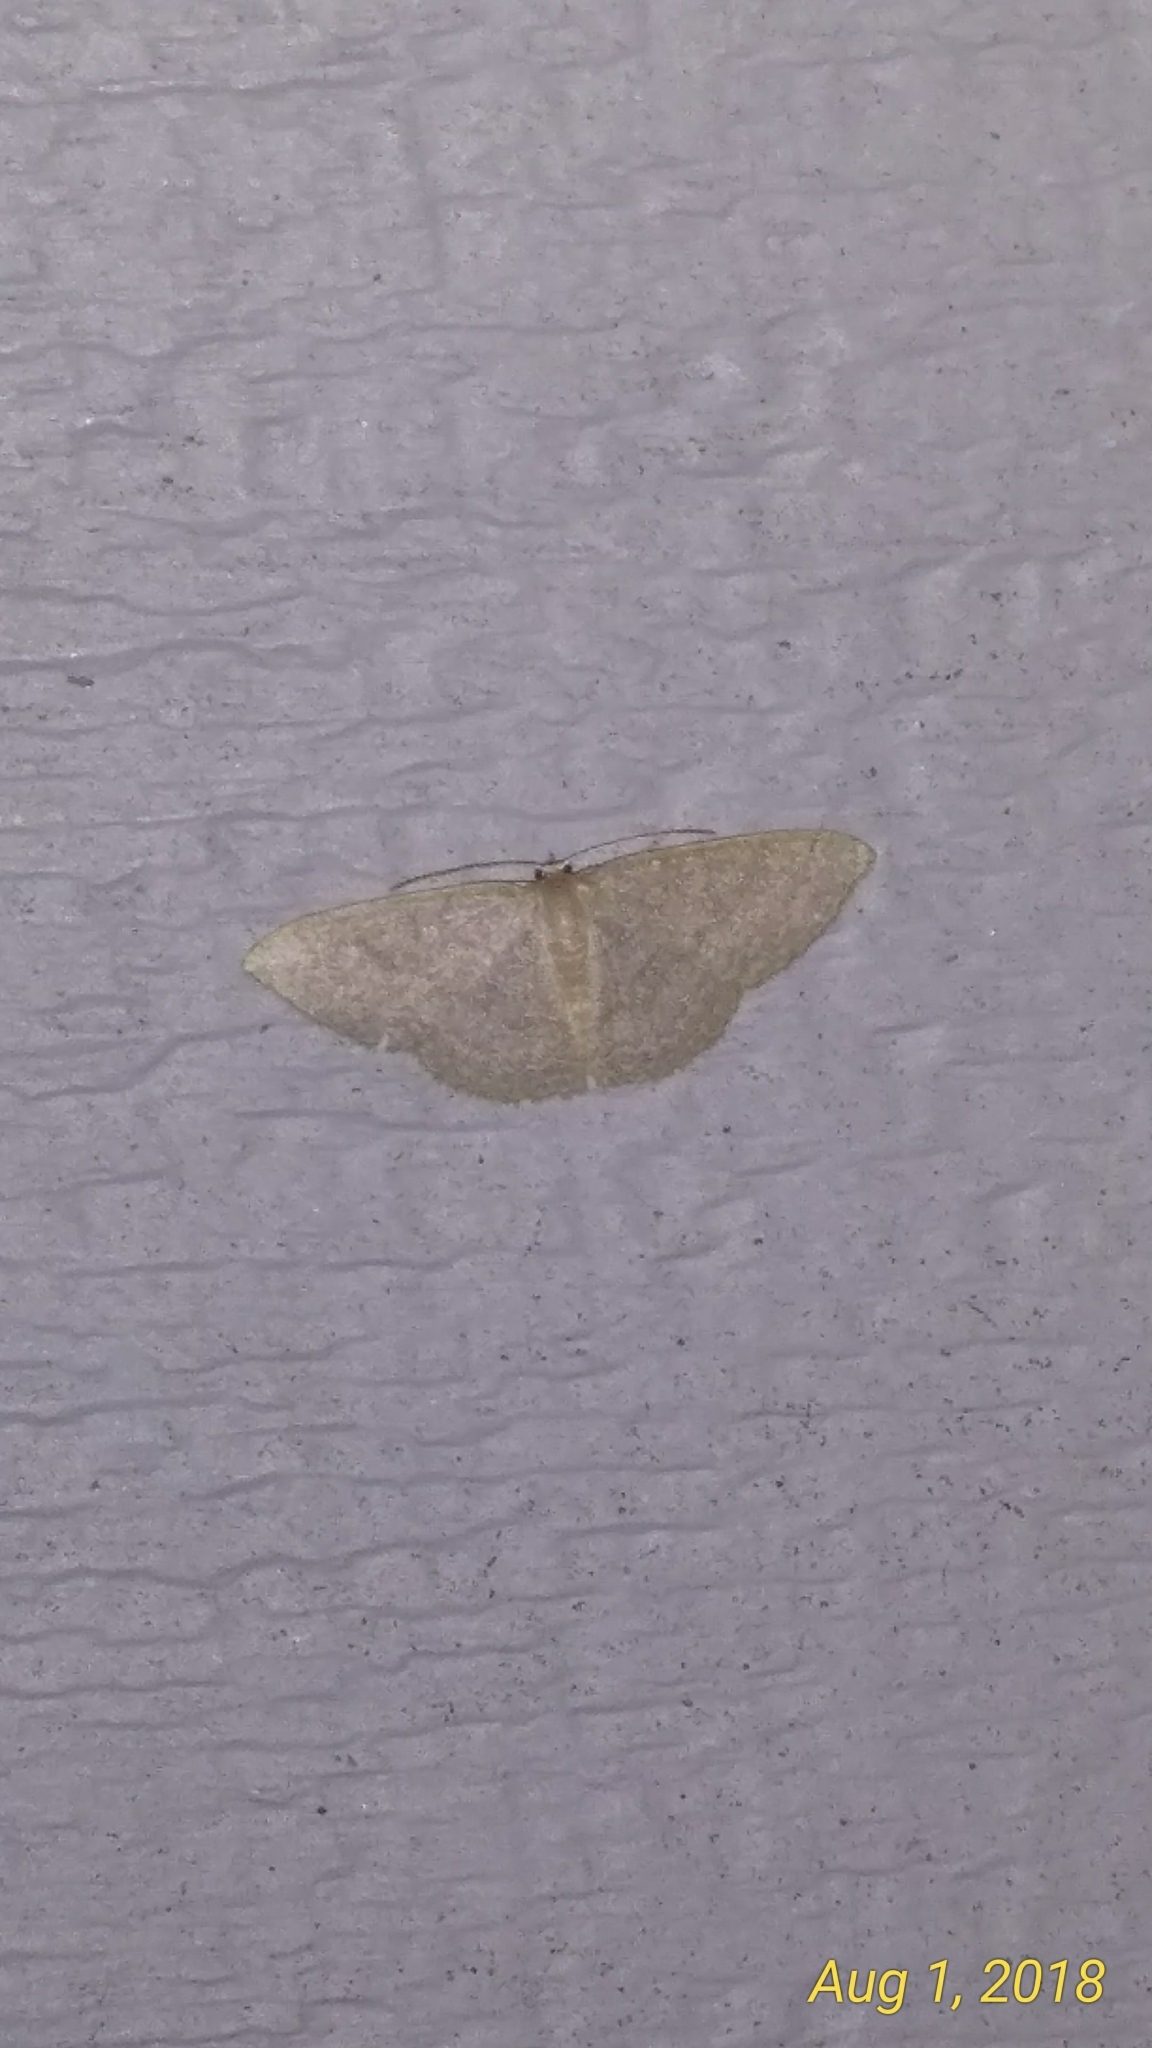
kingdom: Animalia
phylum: Arthropoda
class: Insecta
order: Lepidoptera
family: Geometridae
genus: Pleuroprucha
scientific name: Pleuroprucha insulsaria
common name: Common tan wave
